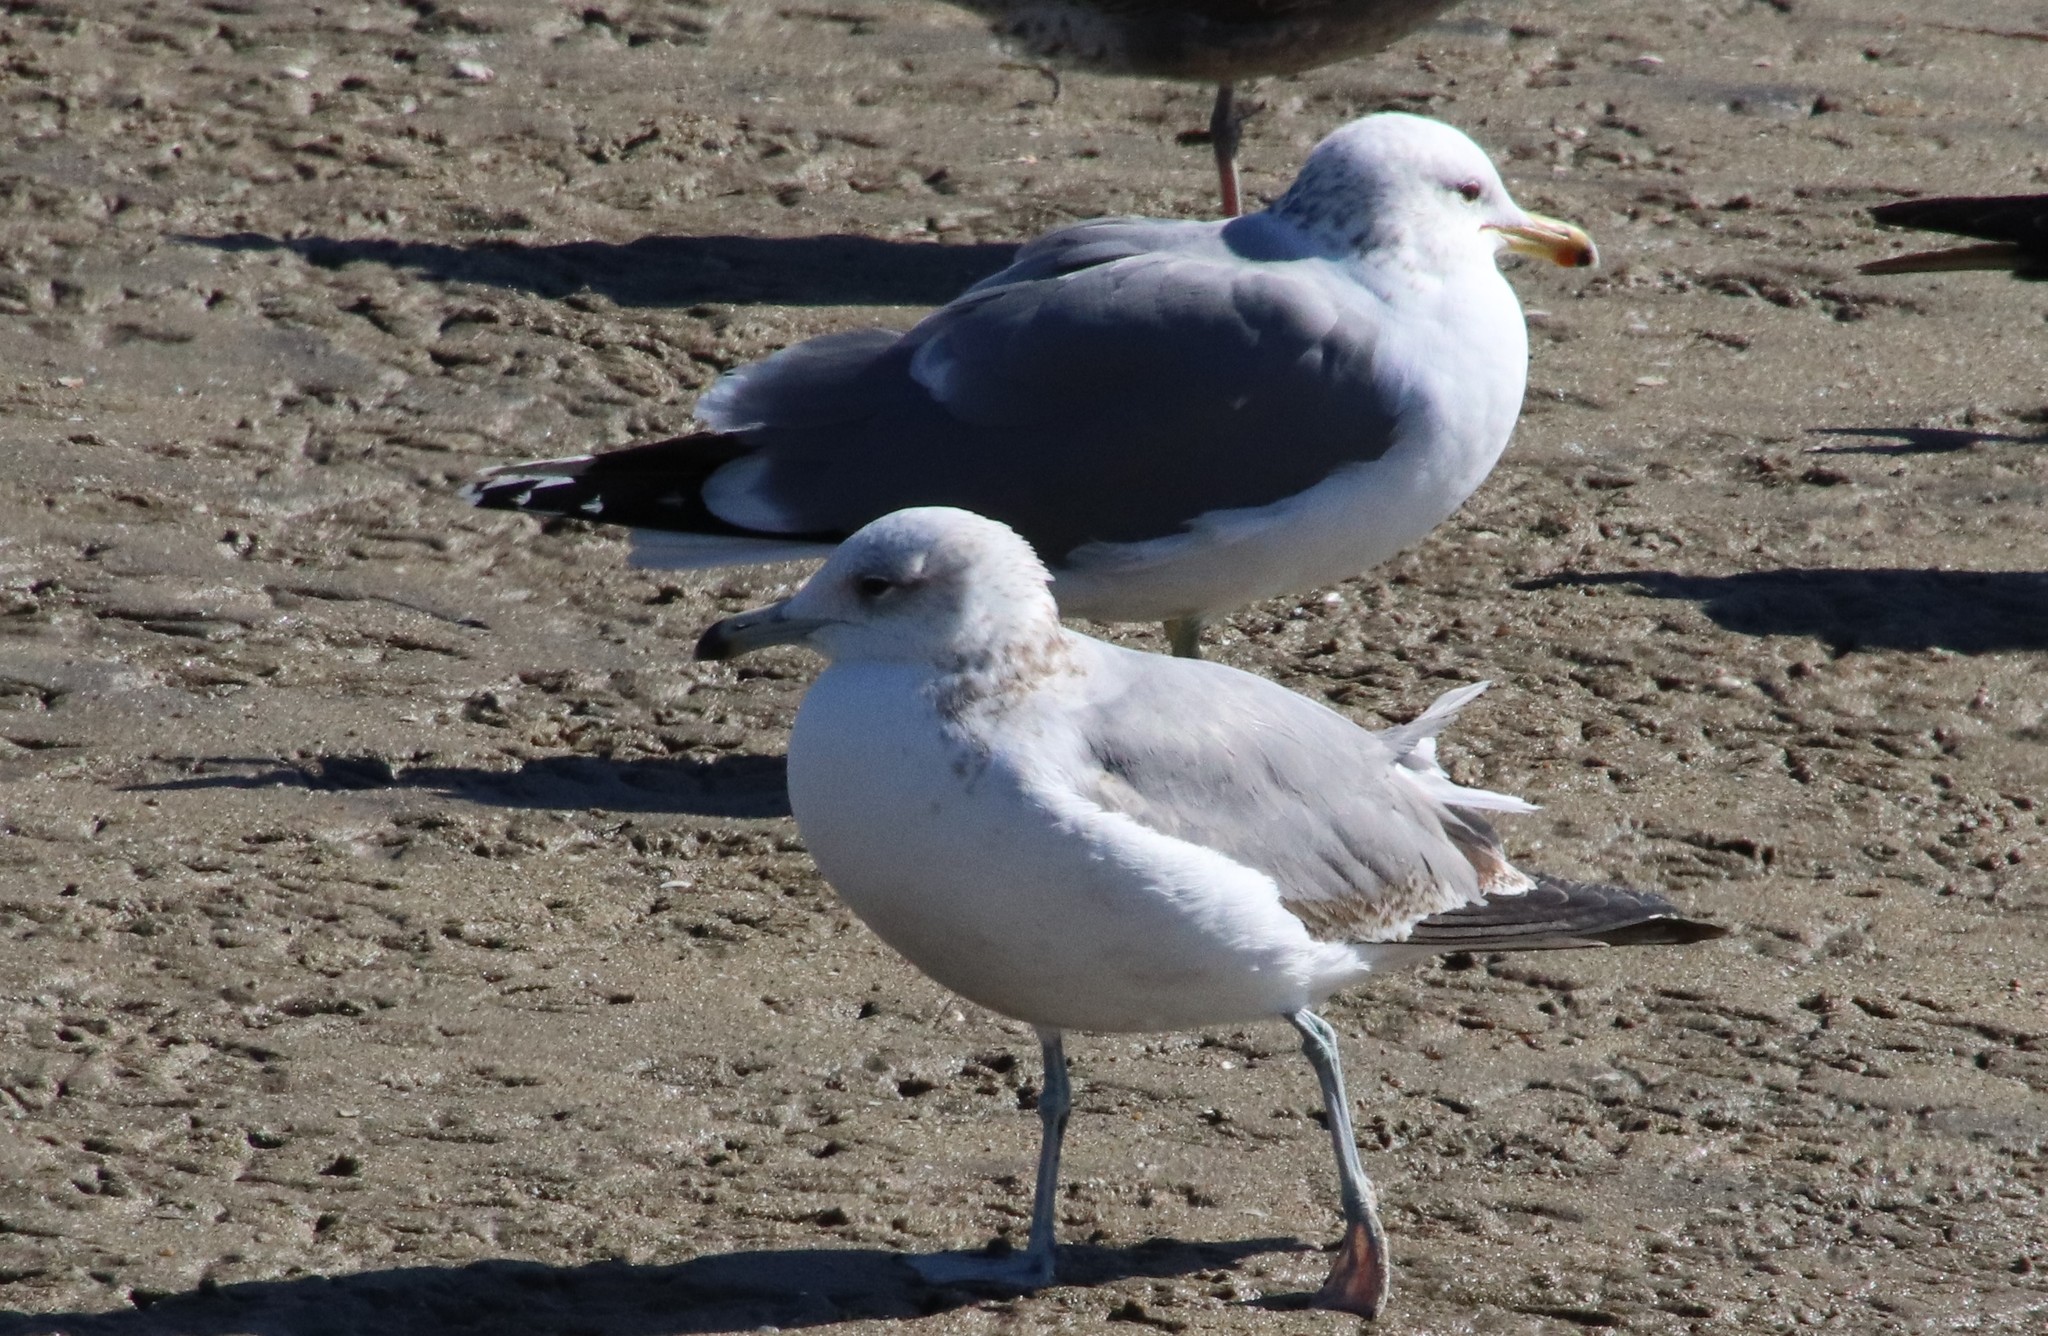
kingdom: Animalia
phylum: Chordata
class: Aves
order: Charadriiformes
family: Laridae
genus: Larus
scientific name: Larus californicus
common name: California gull
